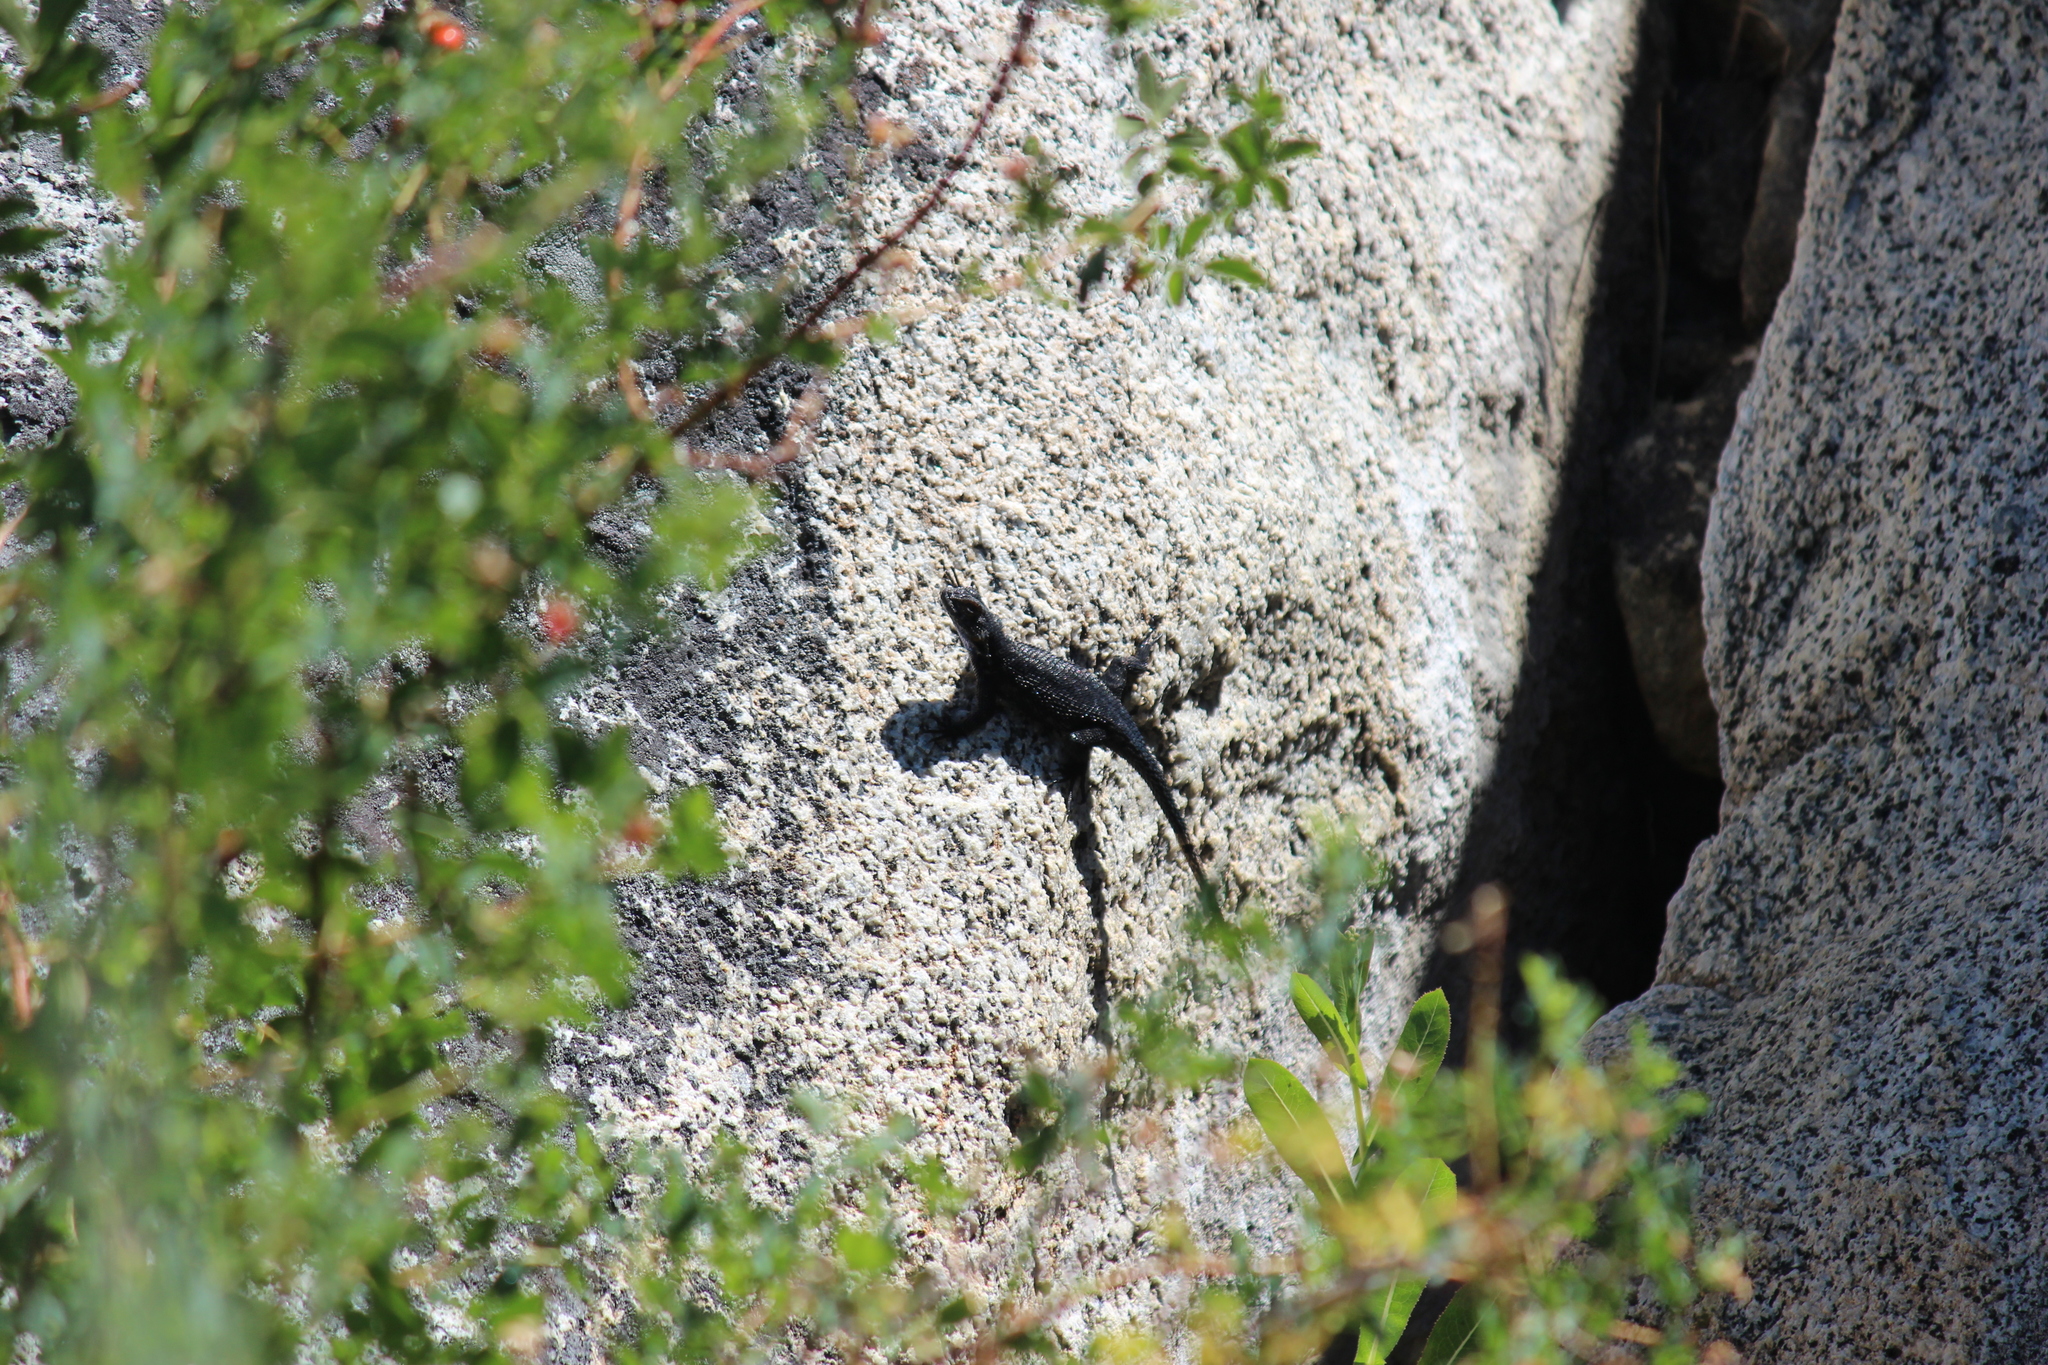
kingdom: Animalia
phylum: Chordata
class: Squamata
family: Phrynosomatidae
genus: Sceloporus
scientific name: Sceloporus occidentalis
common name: Western fence lizard
